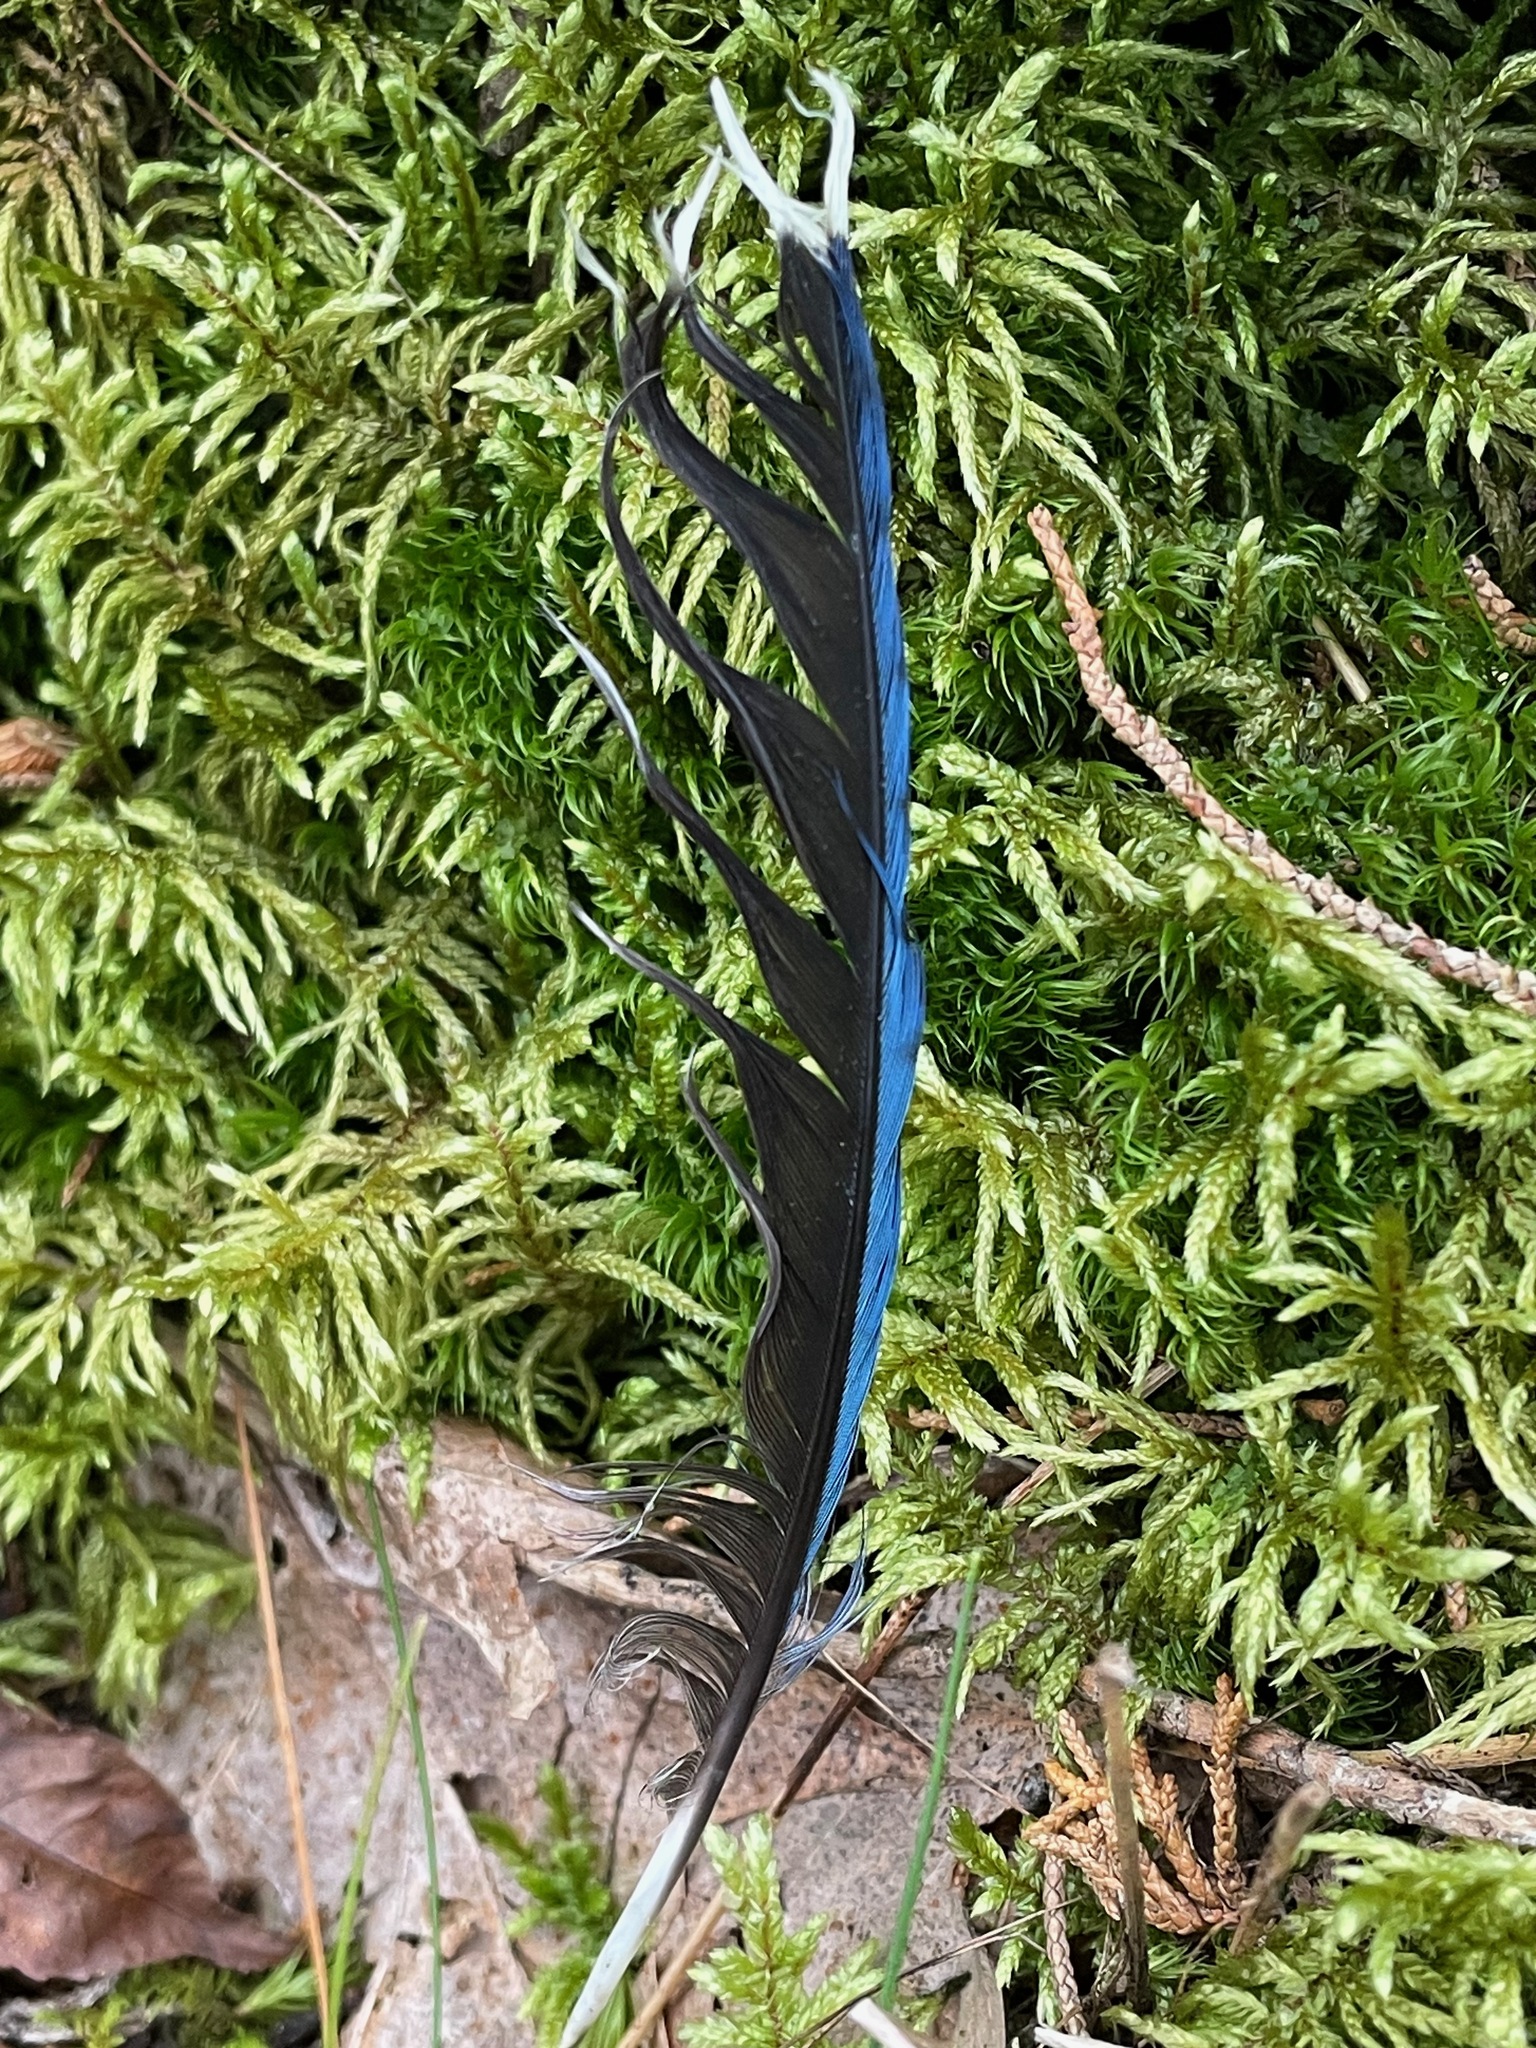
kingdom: Animalia
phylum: Chordata
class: Aves
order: Passeriformes
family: Corvidae
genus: Cyanocitta
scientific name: Cyanocitta cristata
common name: Blue jay
